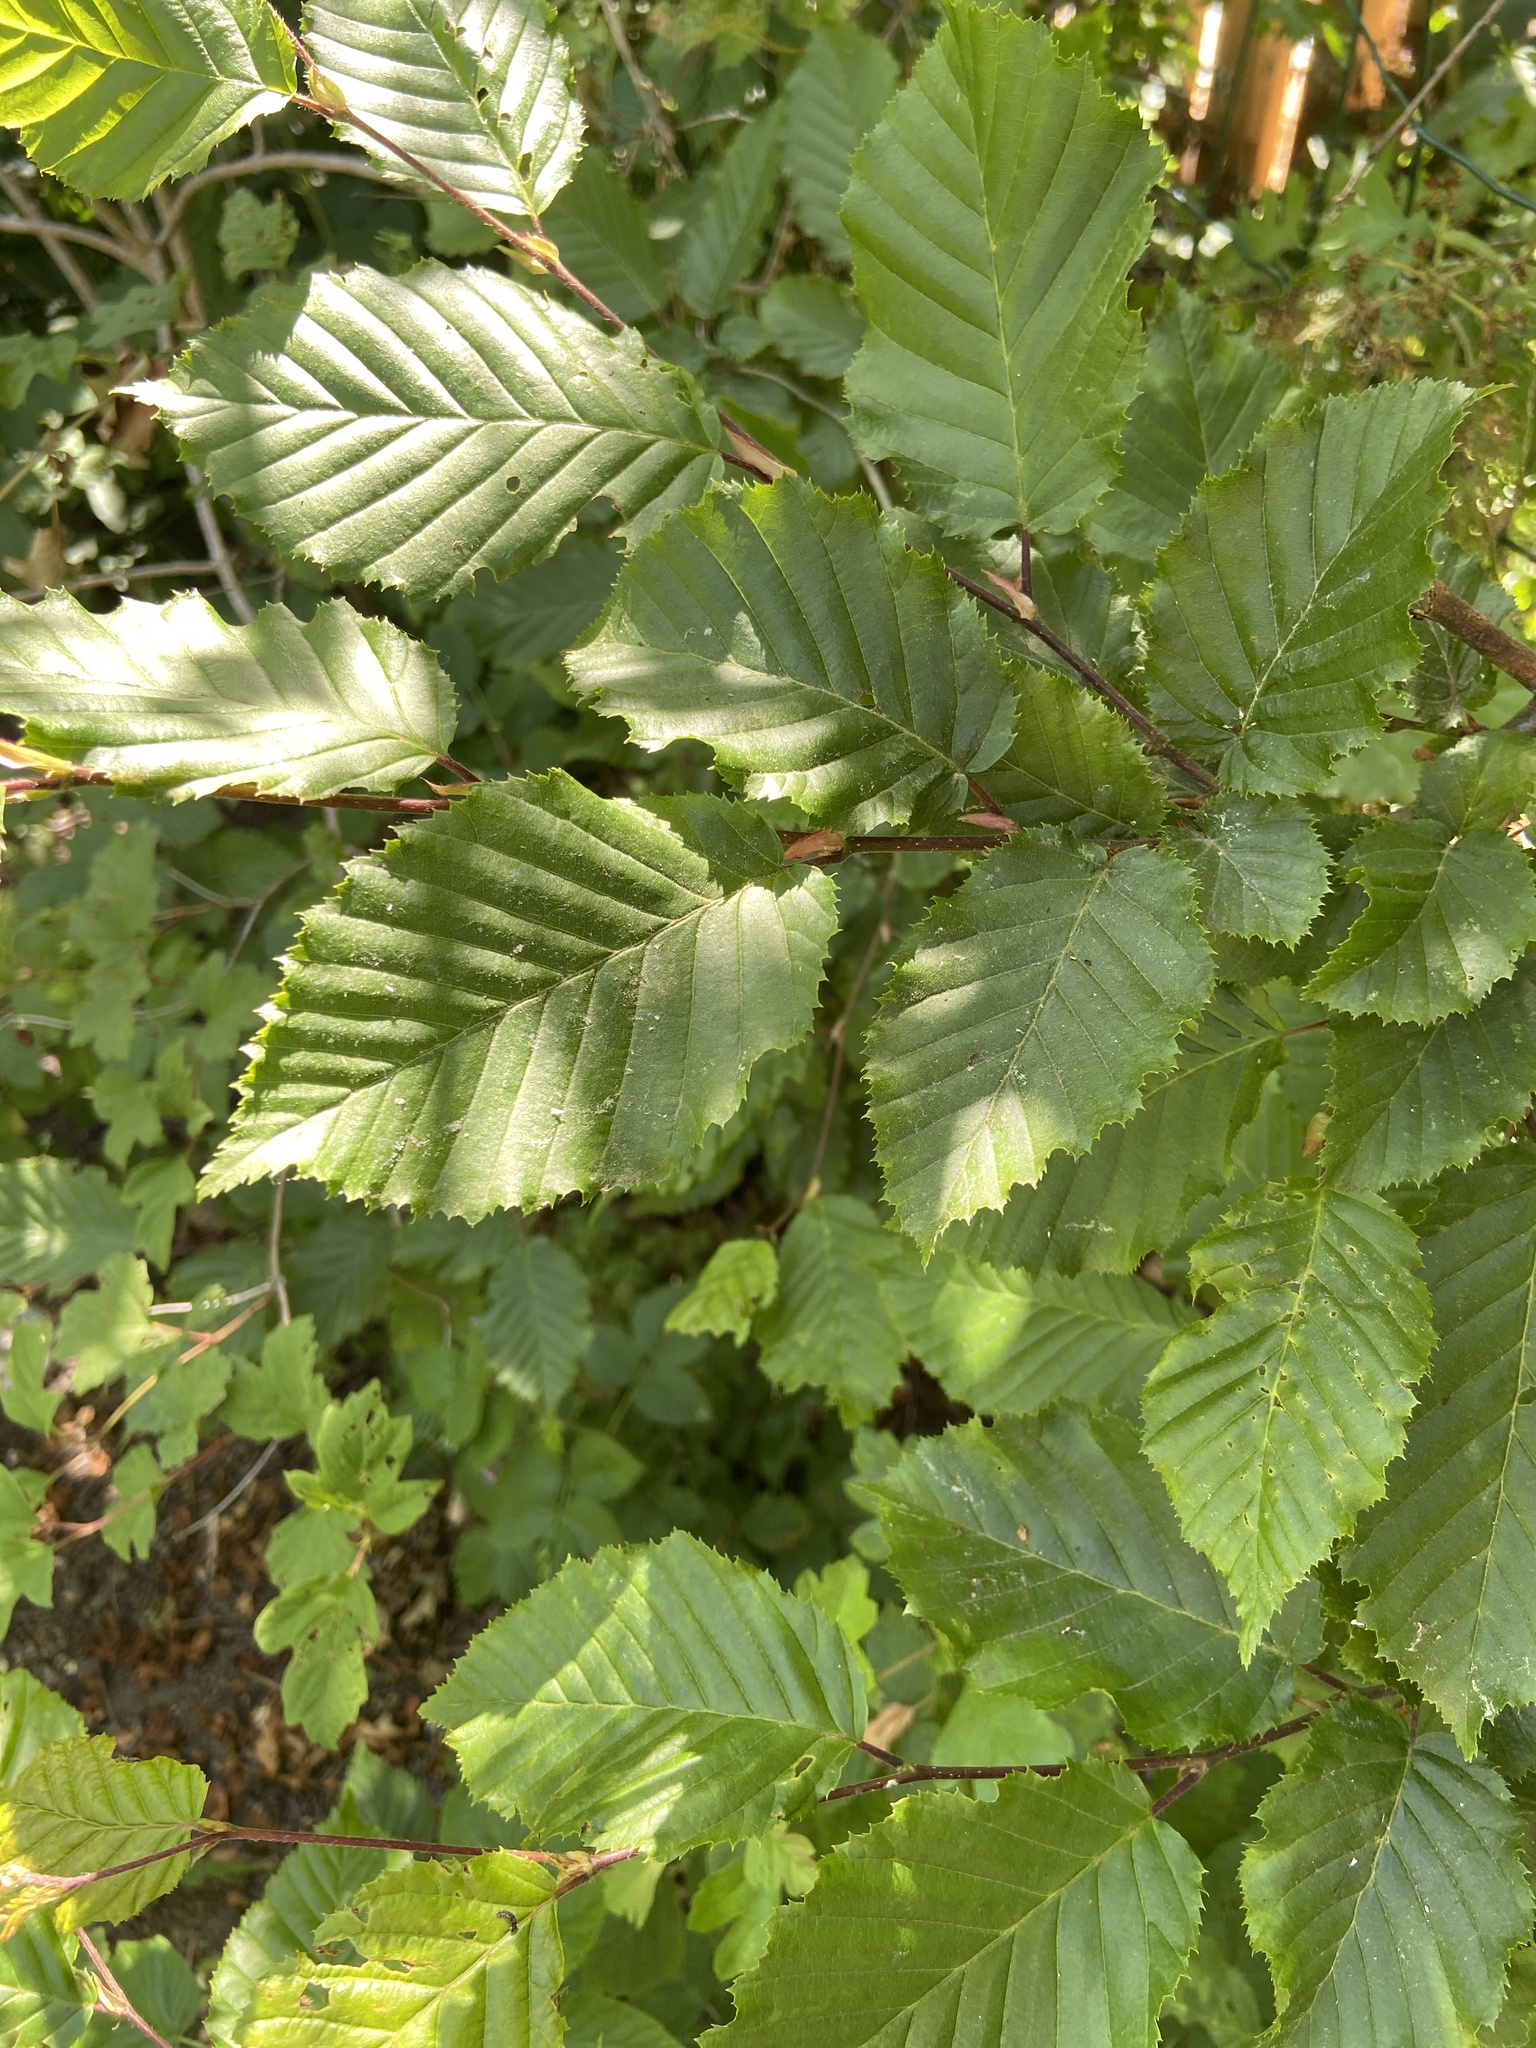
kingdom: Plantae
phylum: Tracheophyta
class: Magnoliopsida
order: Fagales
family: Betulaceae
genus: Carpinus
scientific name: Carpinus betulus
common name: Hornbeam
